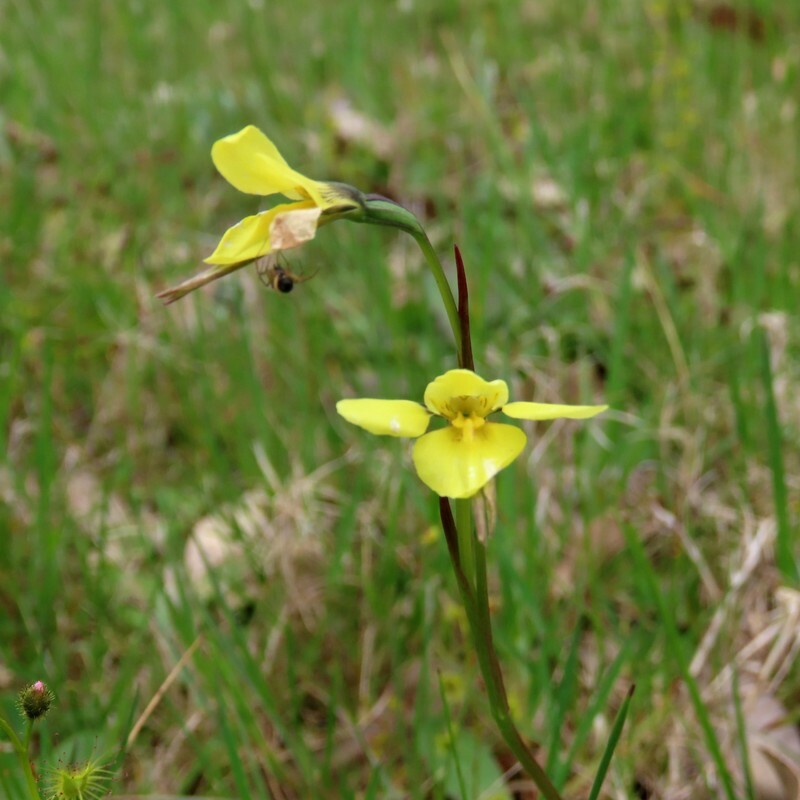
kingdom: Plantae
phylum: Tracheophyta
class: Liliopsida
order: Asparagales
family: Orchidaceae
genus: Diuris
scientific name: Diuris chryseopsis
